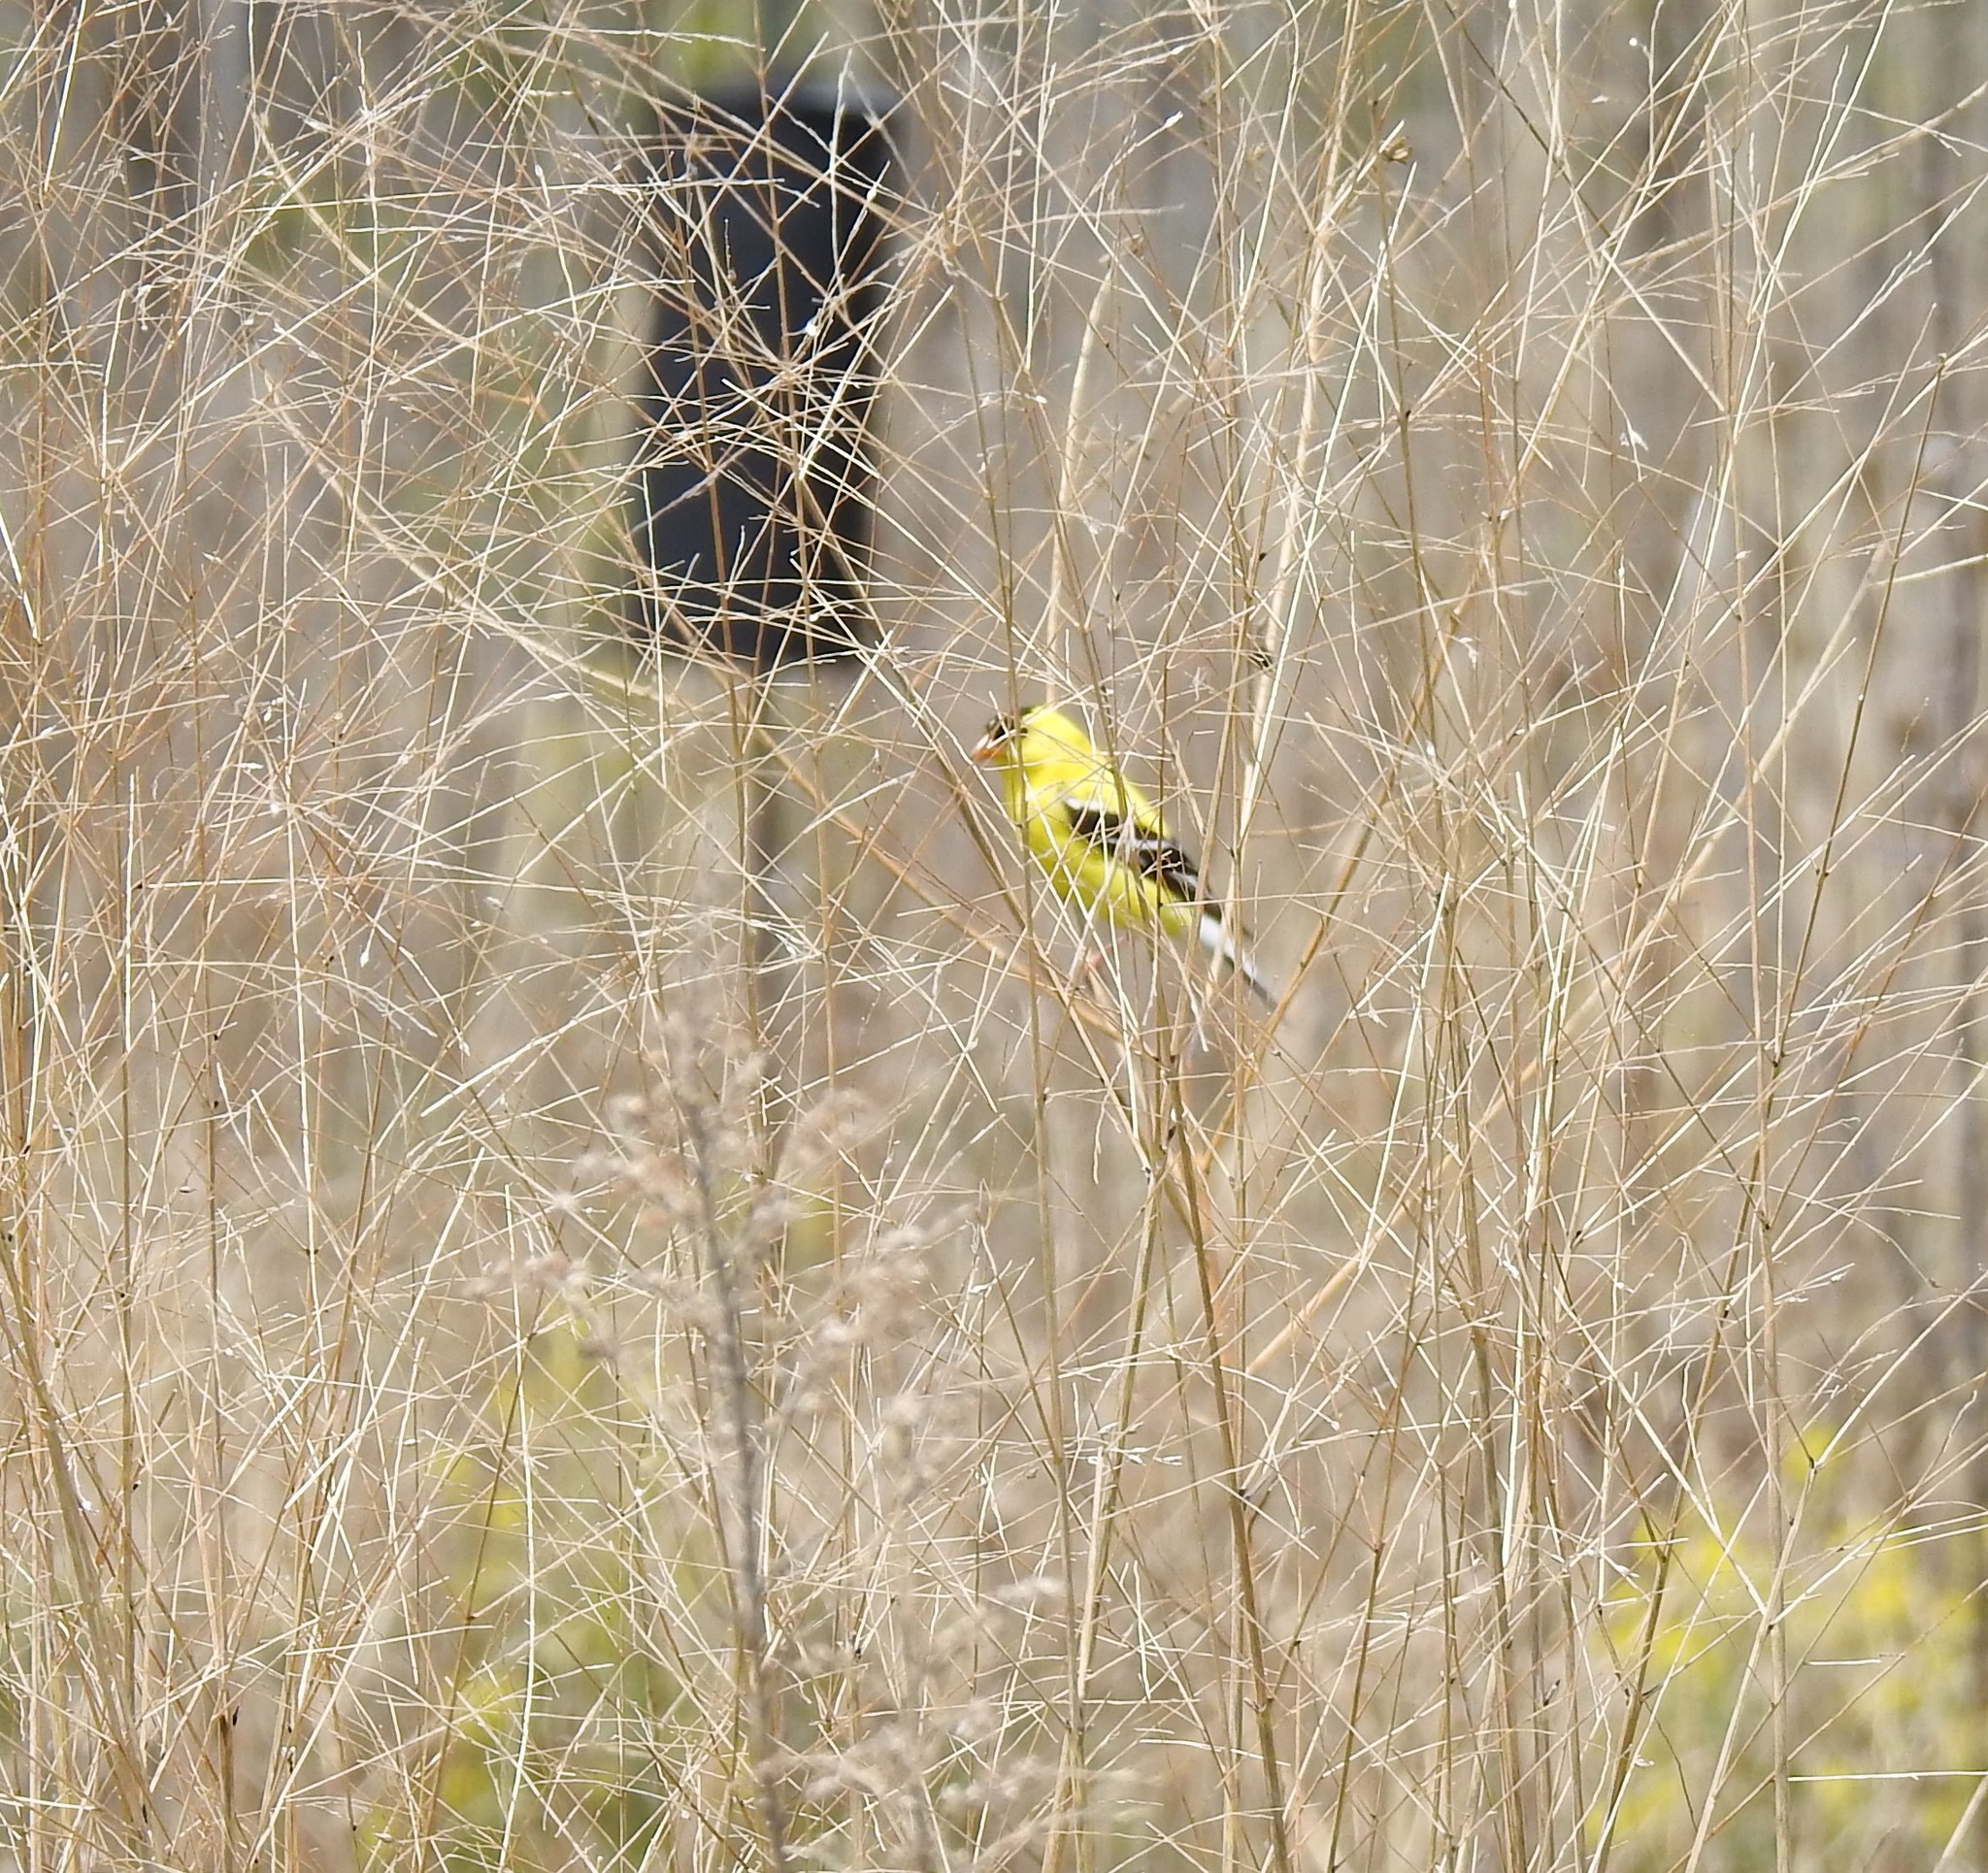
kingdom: Animalia
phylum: Chordata
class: Aves
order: Passeriformes
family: Fringillidae
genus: Spinus
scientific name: Spinus tristis
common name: American goldfinch
